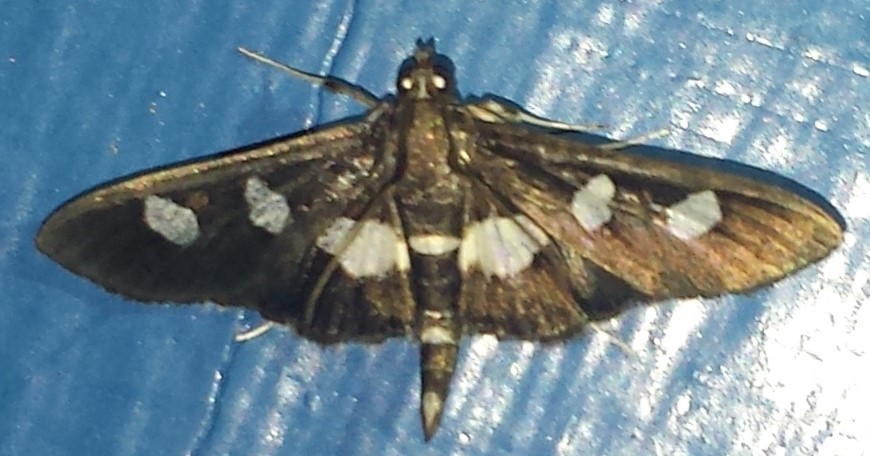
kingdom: Animalia
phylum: Arthropoda
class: Insecta
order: Lepidoptera
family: Crambidae
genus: Desmia
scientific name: Desmia
